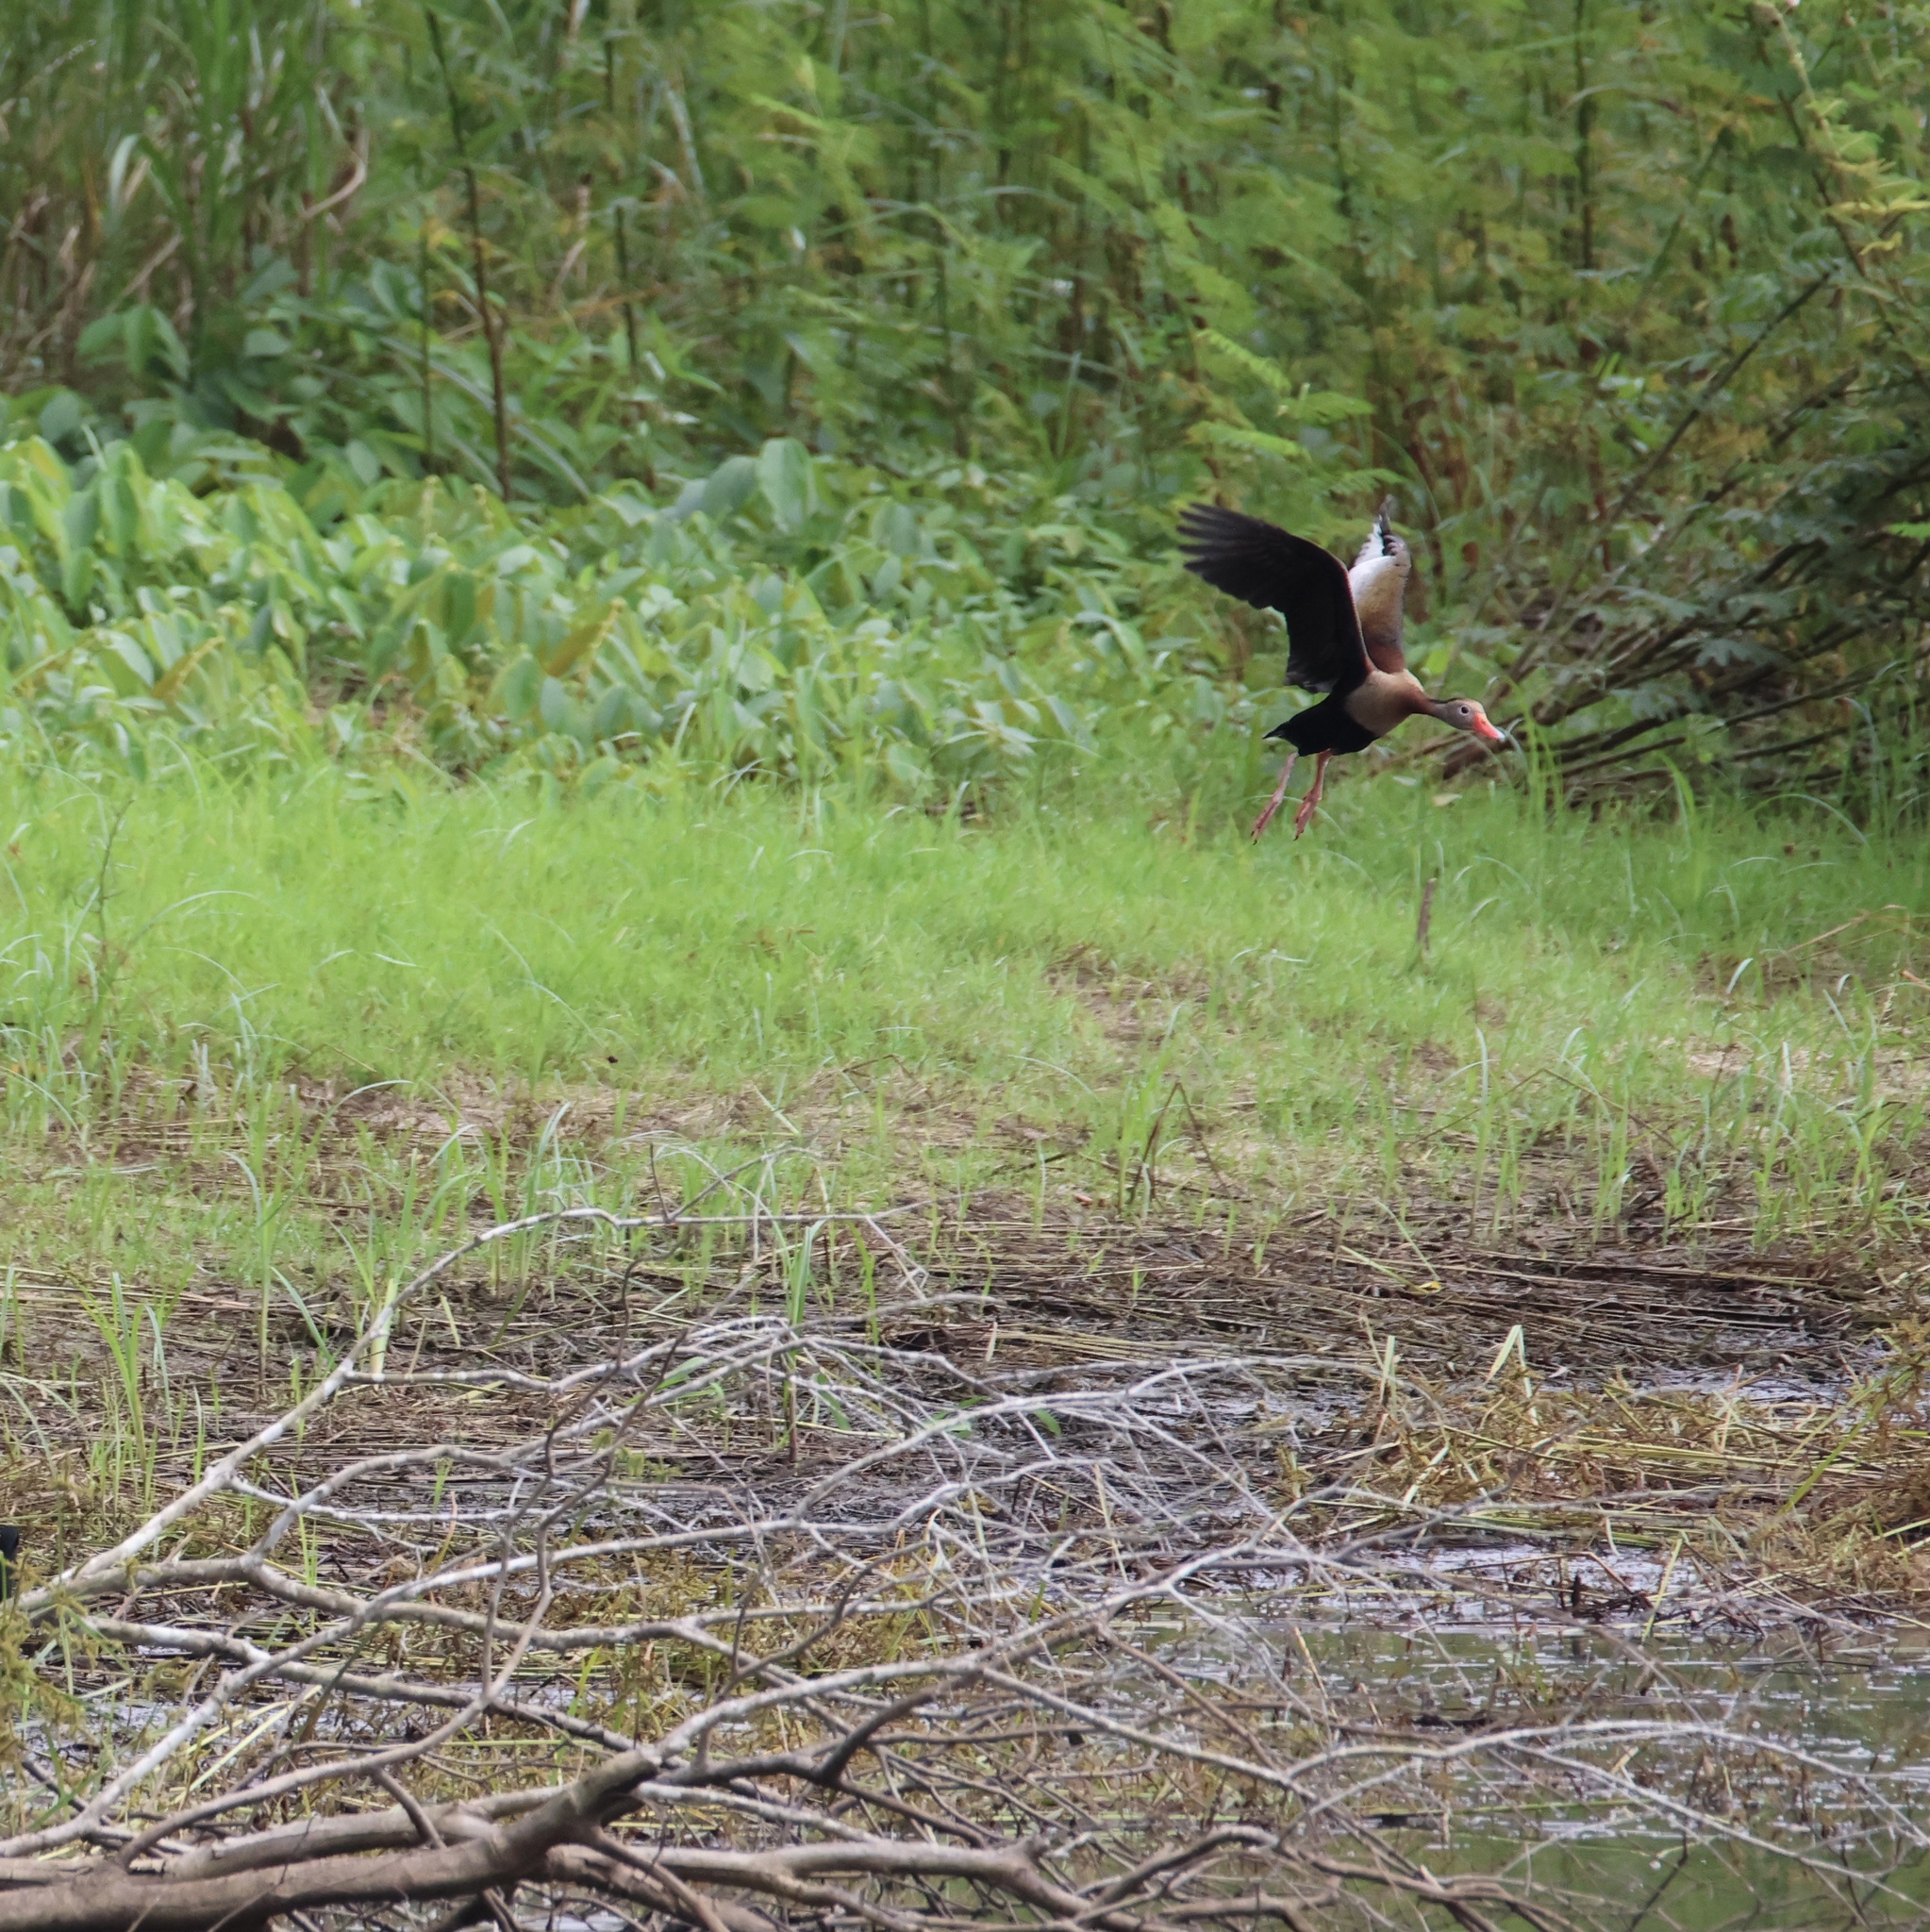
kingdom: Animalia
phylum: Chordata
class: Aves
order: Anseriformes
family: Anatidae
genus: Dendrocygna
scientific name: Dendrocygna autumnalis
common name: Black-bellied whistling duck
